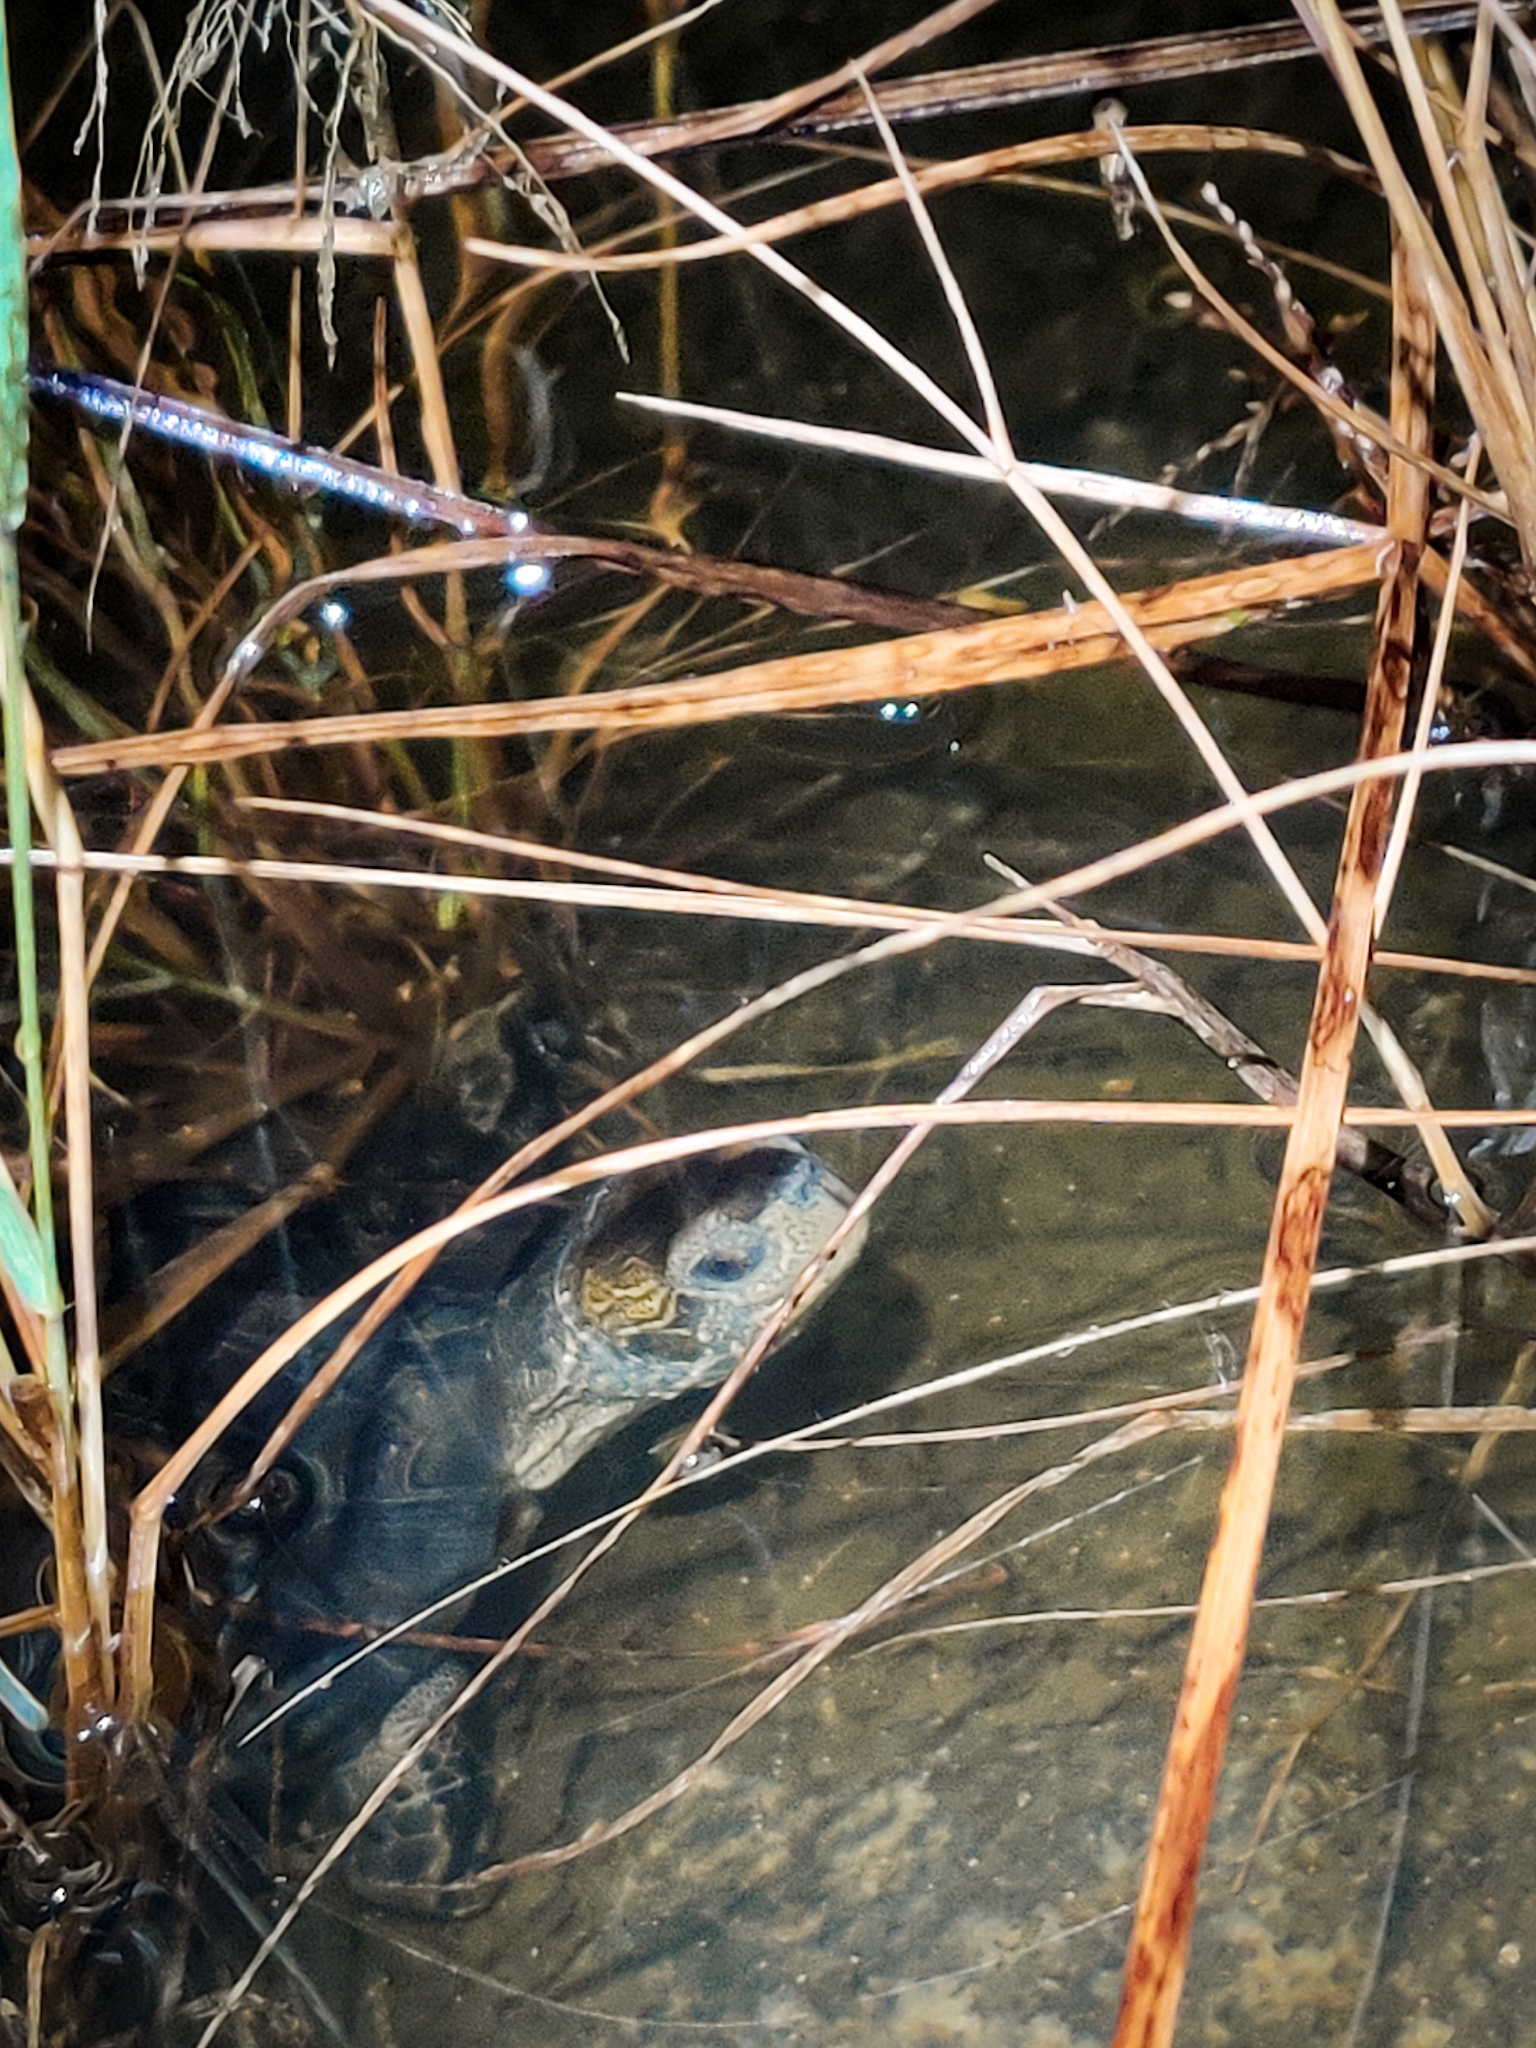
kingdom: Animalia
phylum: Chordata
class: Testudines
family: Geoemydidae
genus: Melanochelys
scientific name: Melanochelys trijuga
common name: Indian black turtle
